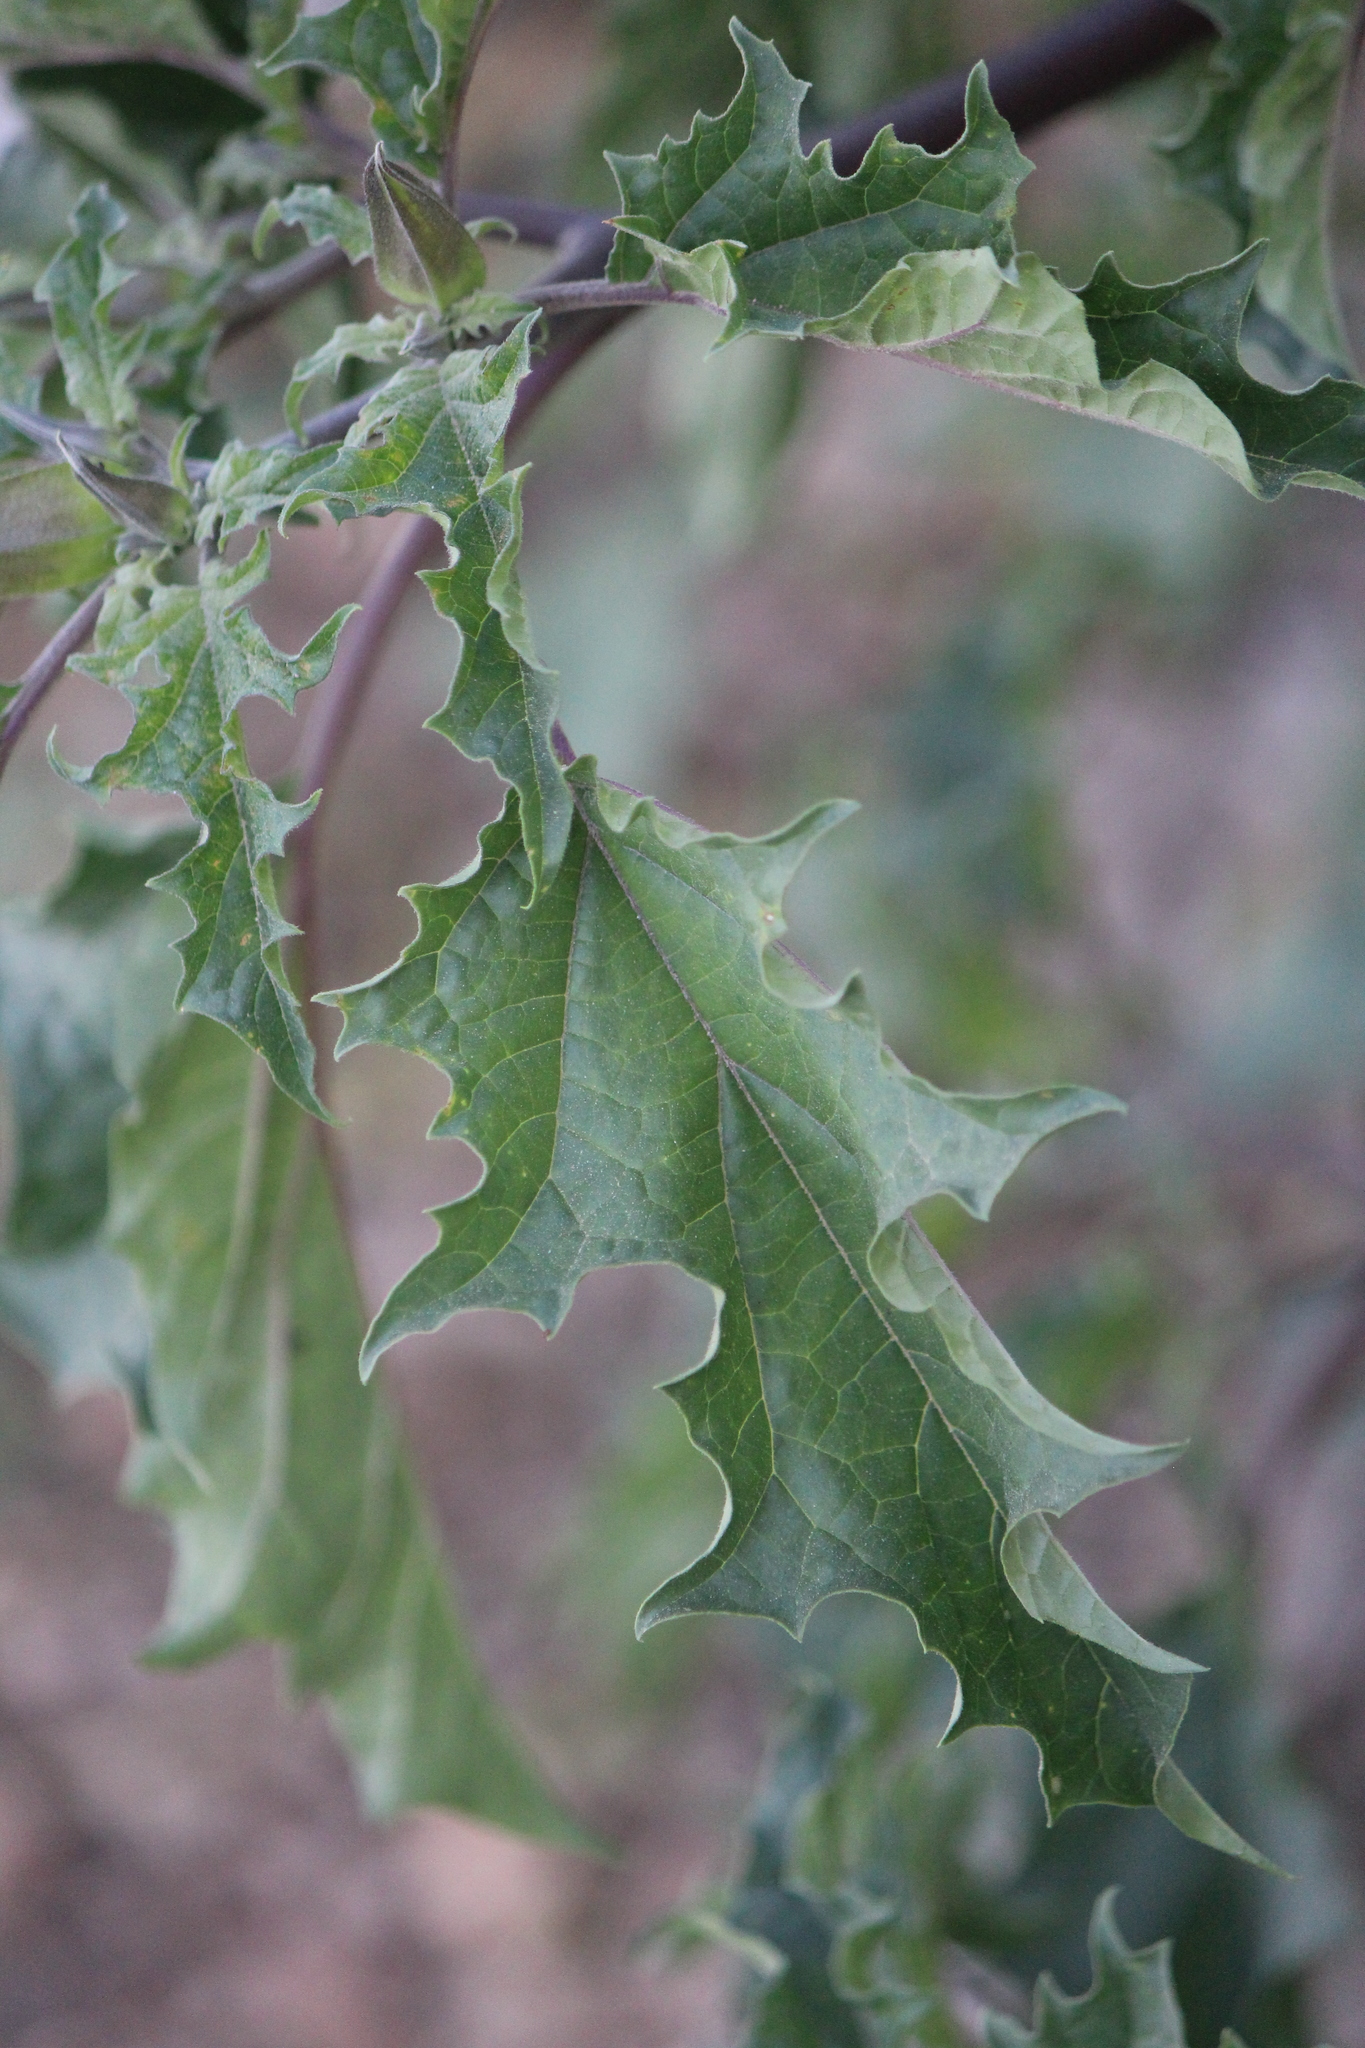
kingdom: Plantae
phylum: Tracheophyta
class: Magnoliopsida
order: Solanales
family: Solanaceae
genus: Datura
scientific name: Datura stramonium
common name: Thorn-apple
